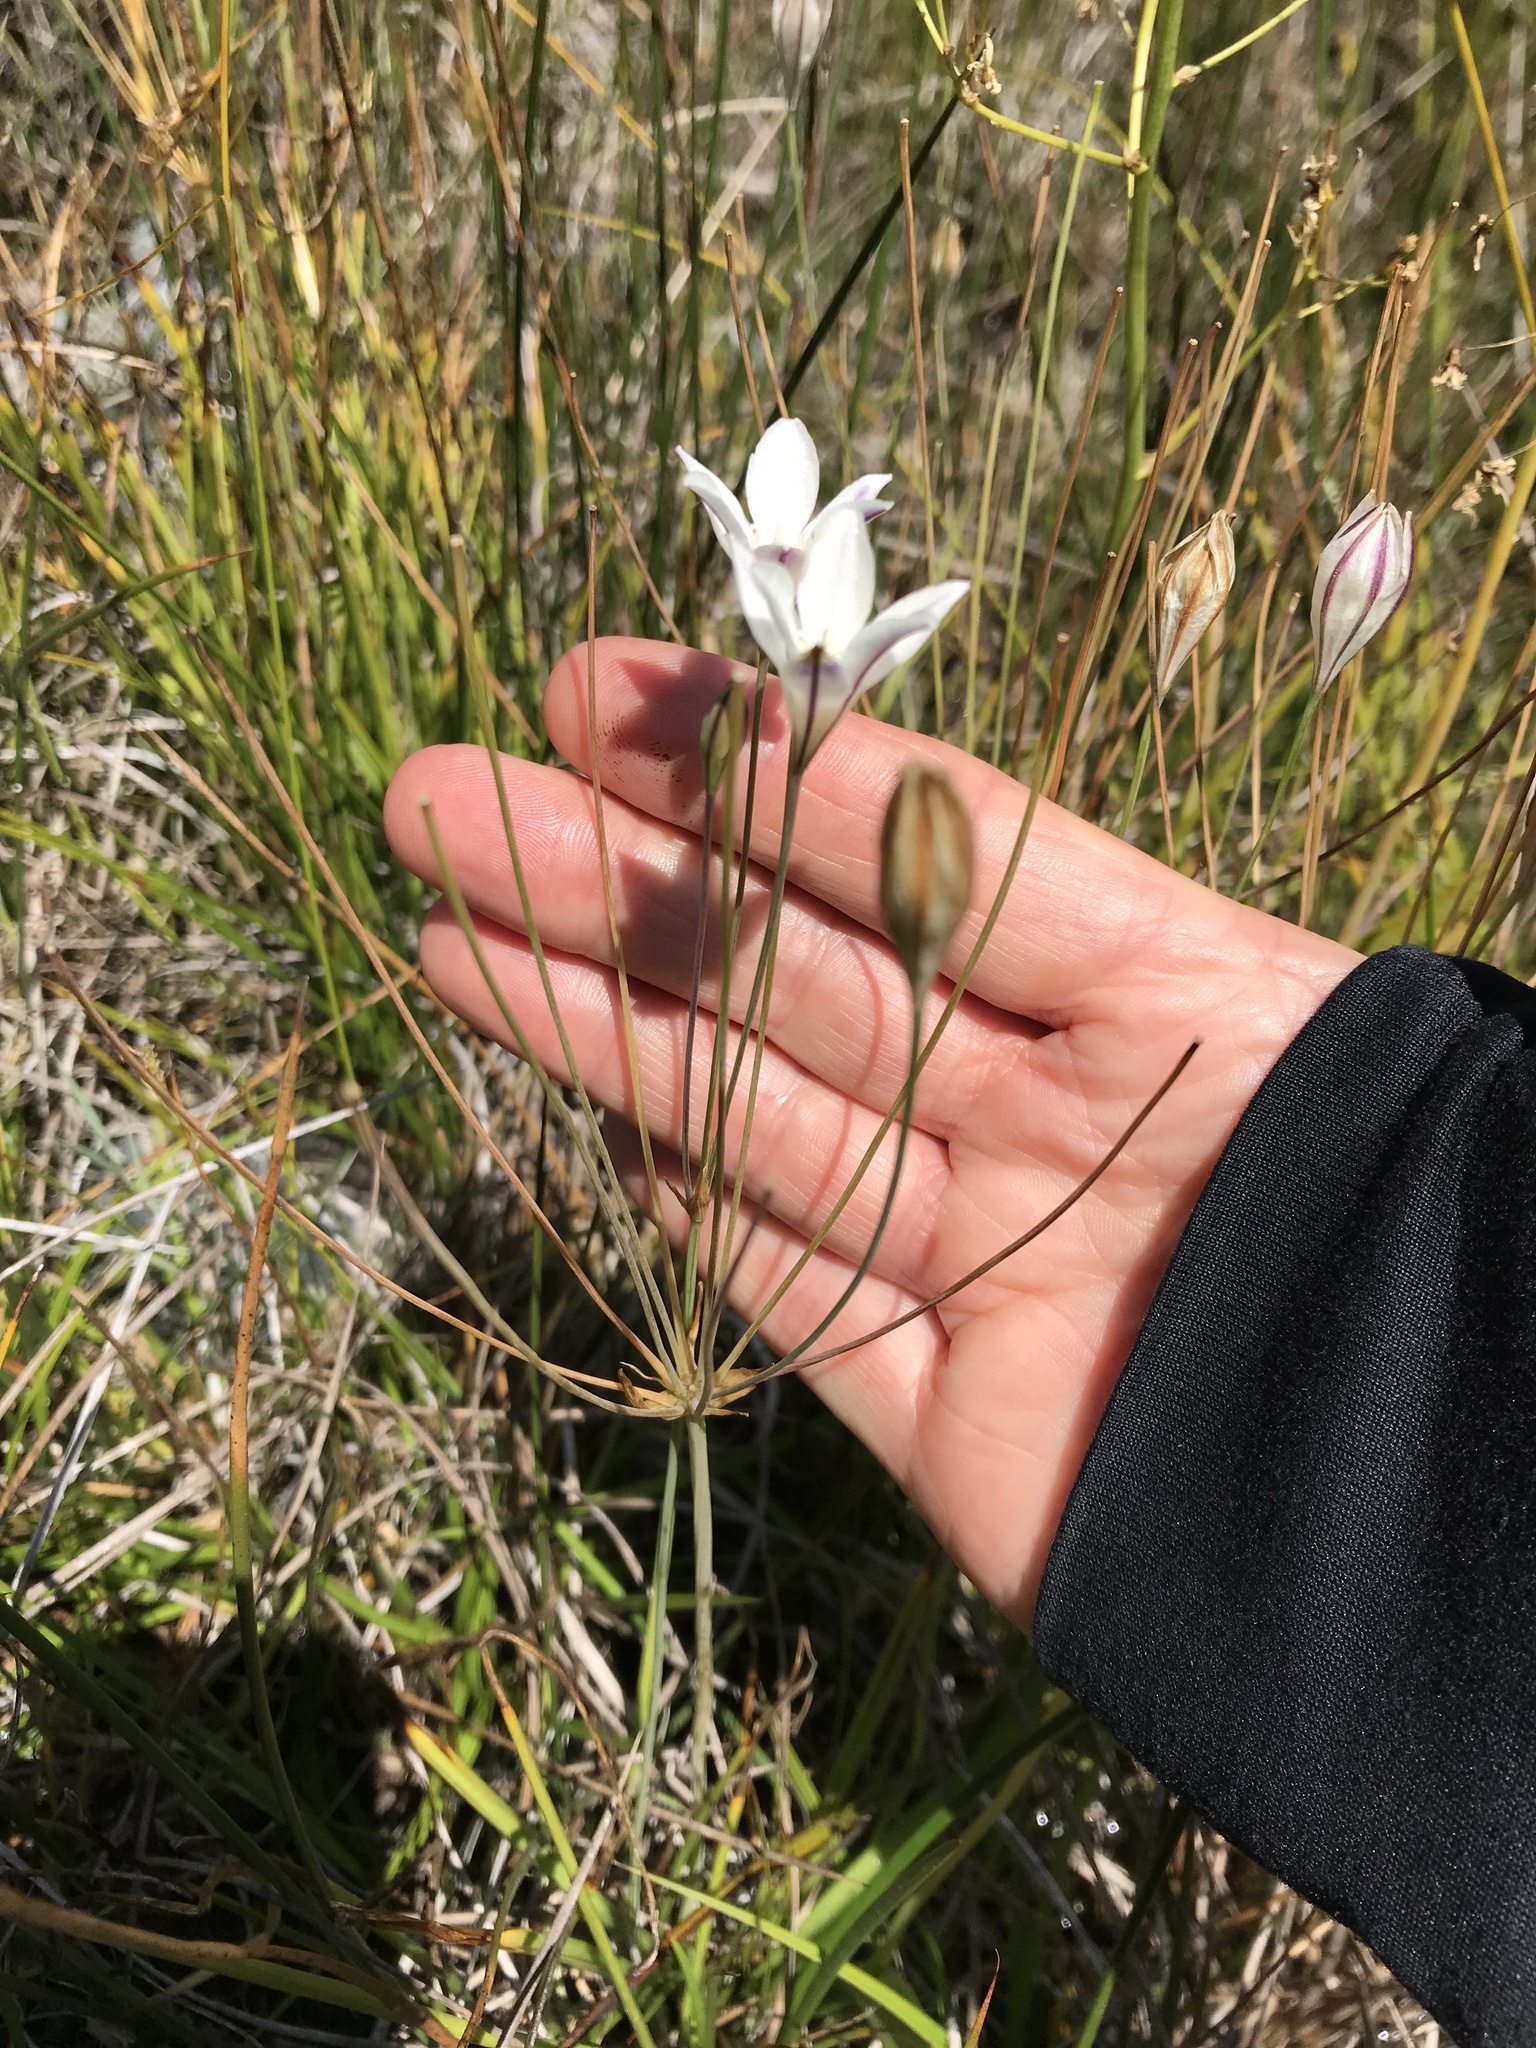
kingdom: Plantae
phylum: Tracheophyta
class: Liliopsida
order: Asparagales
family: Asparagaceae
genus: Triteleia
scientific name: Triteleia peduncularis
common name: Long-ray brodiaea
